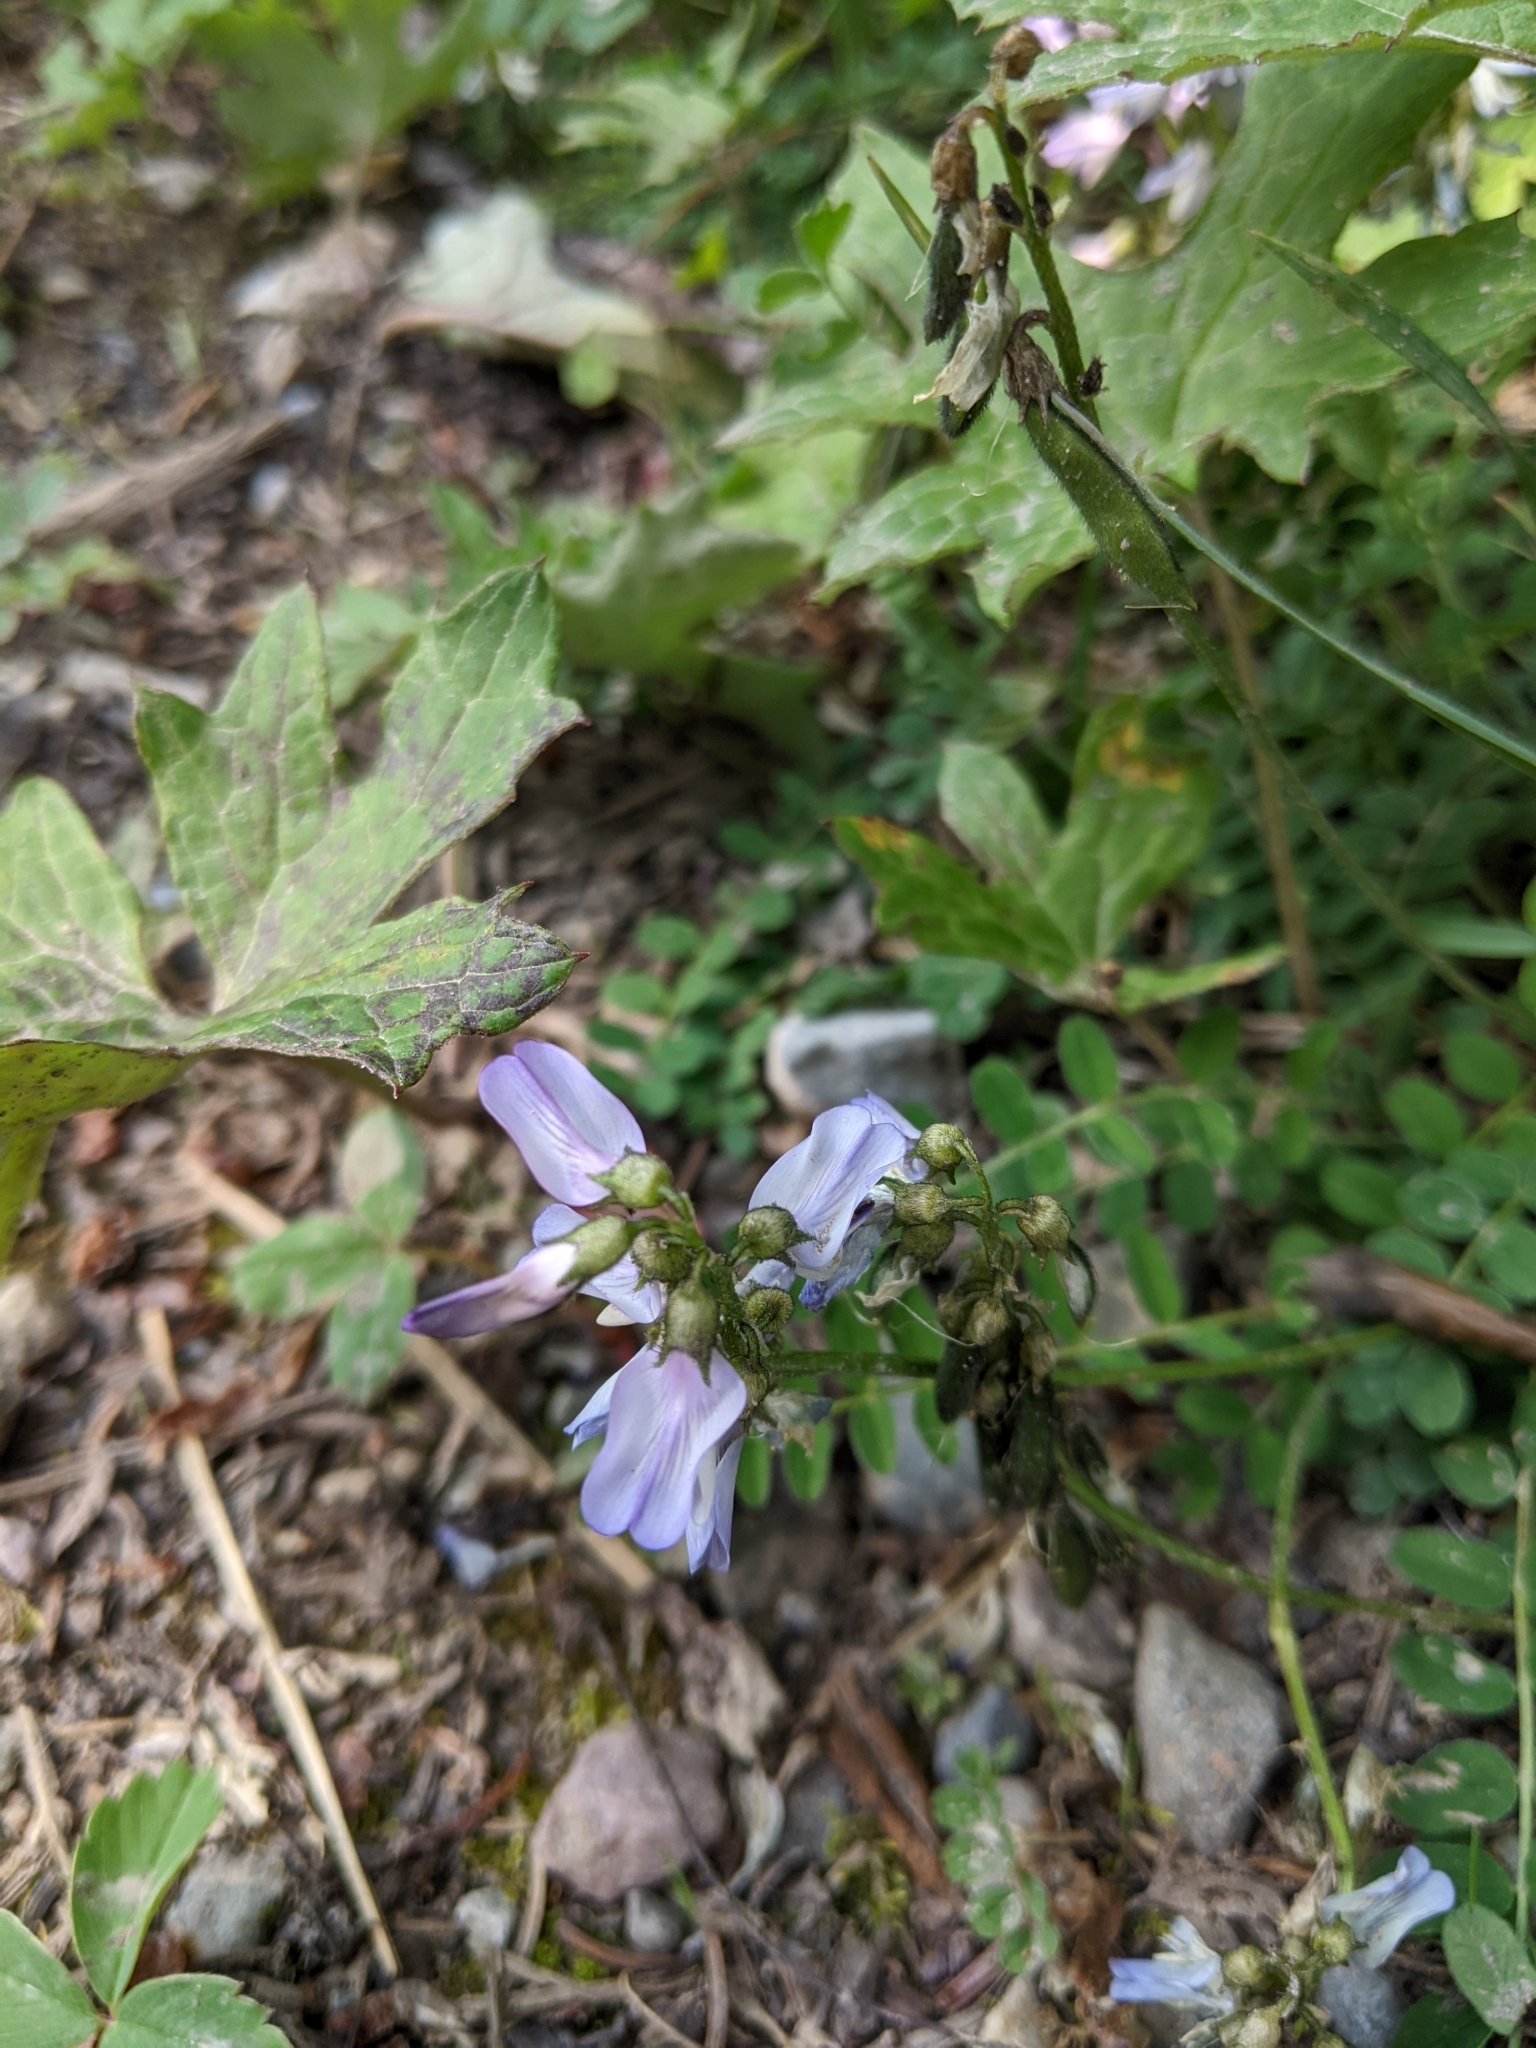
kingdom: Plantae
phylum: Tracheophyta
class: Magnoliopsida
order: Fabales
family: Fabaceae
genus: Astragalus
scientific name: Astragalus alpinus
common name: Alpine milk-vetch
